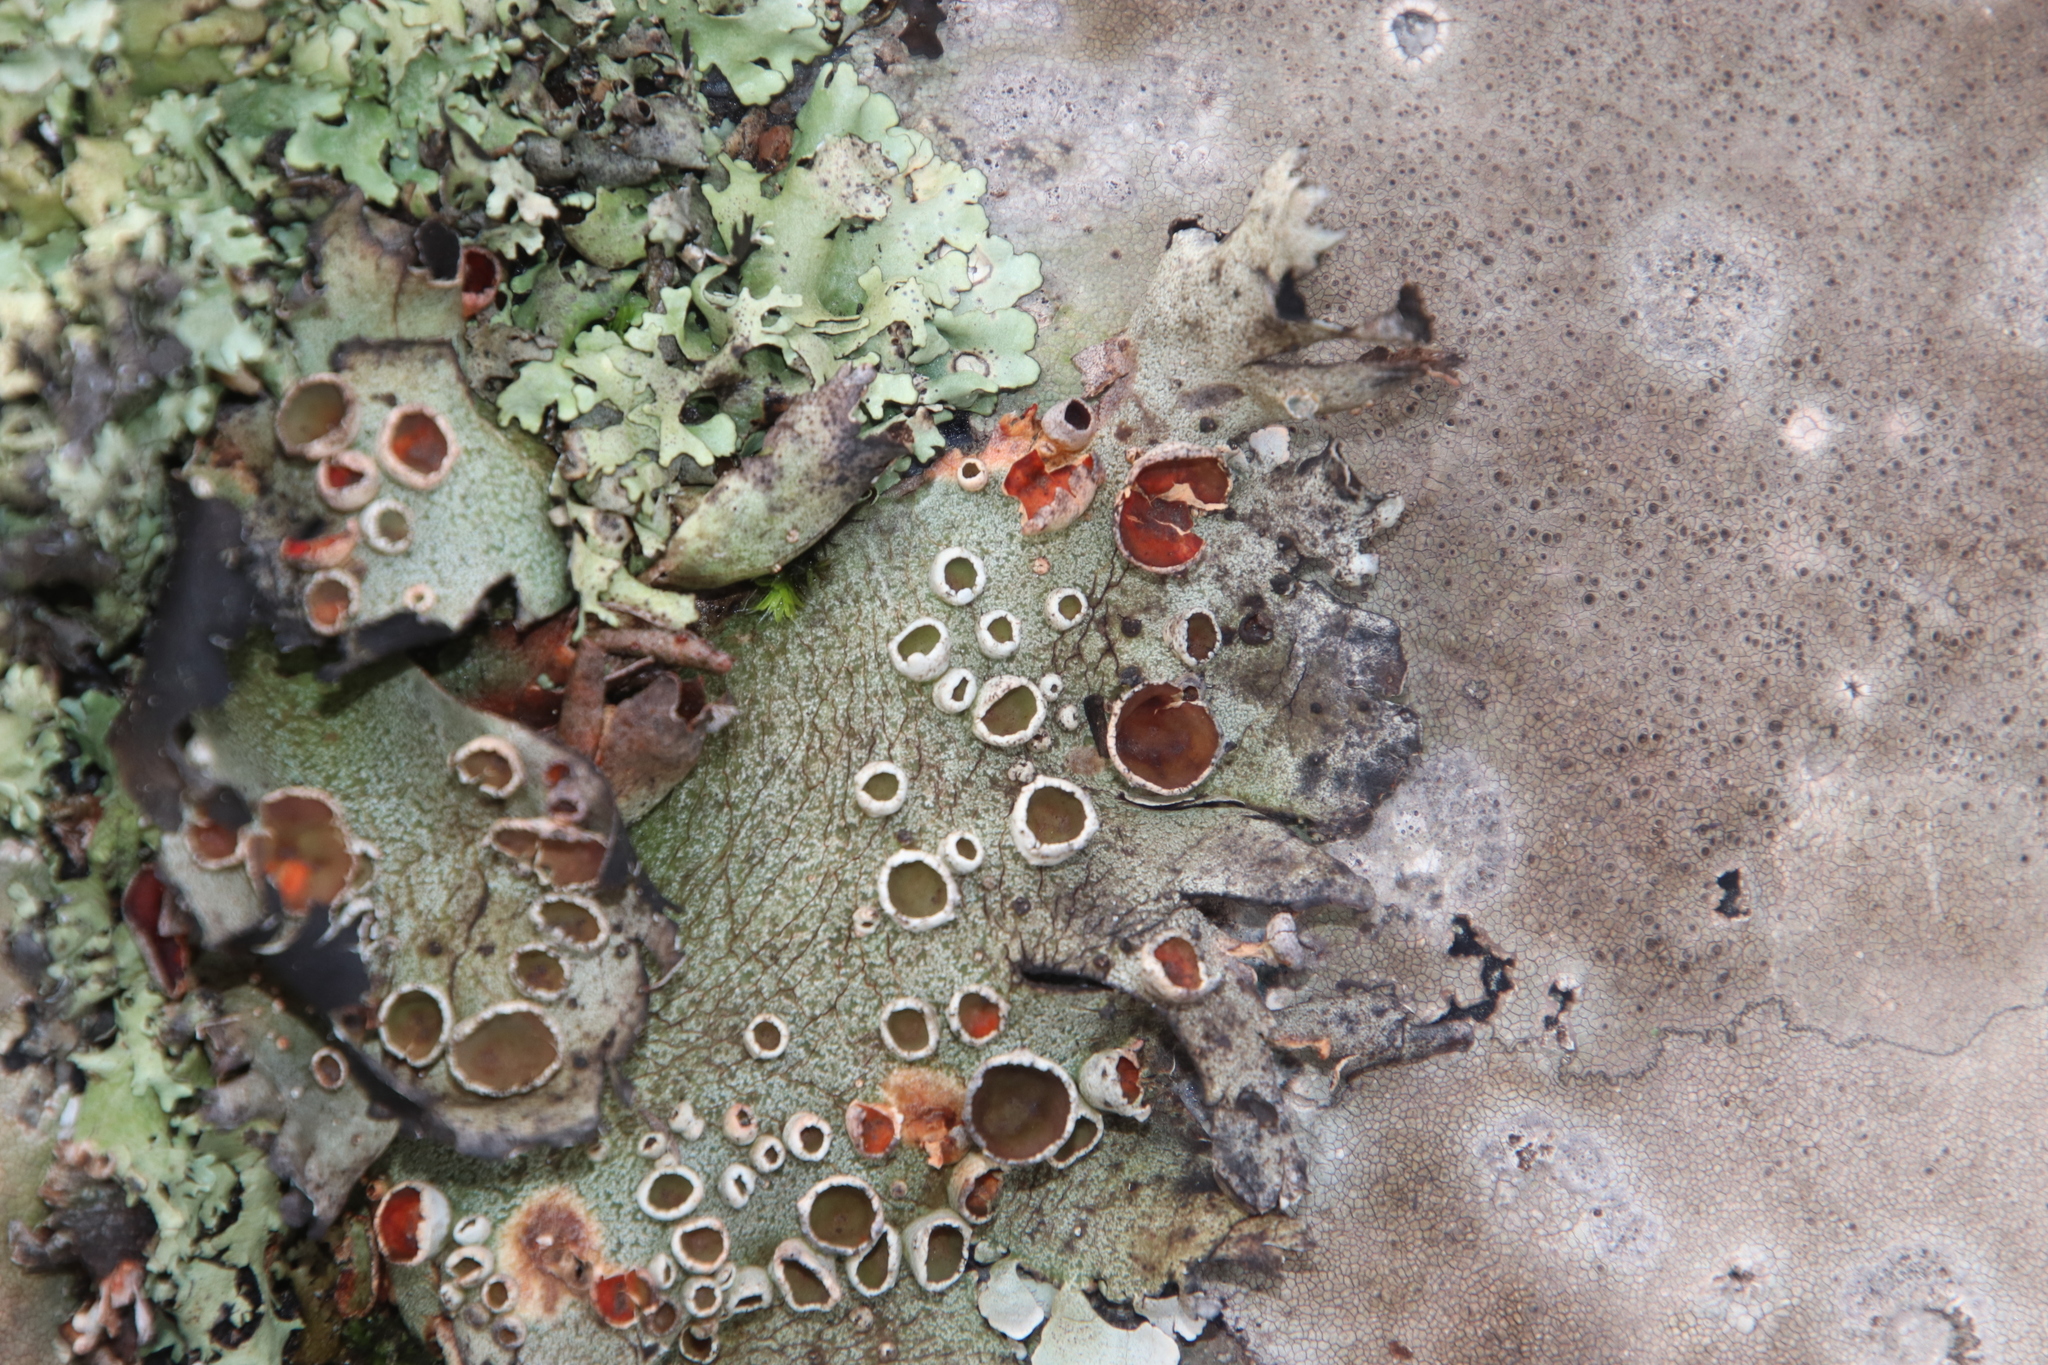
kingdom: Fungi
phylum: Ascomycota
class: Lecanoromycetes
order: Lecanorales
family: Parmeliaceae
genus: Xanthoparmelia
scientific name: Xanthoparmelia frondosa
